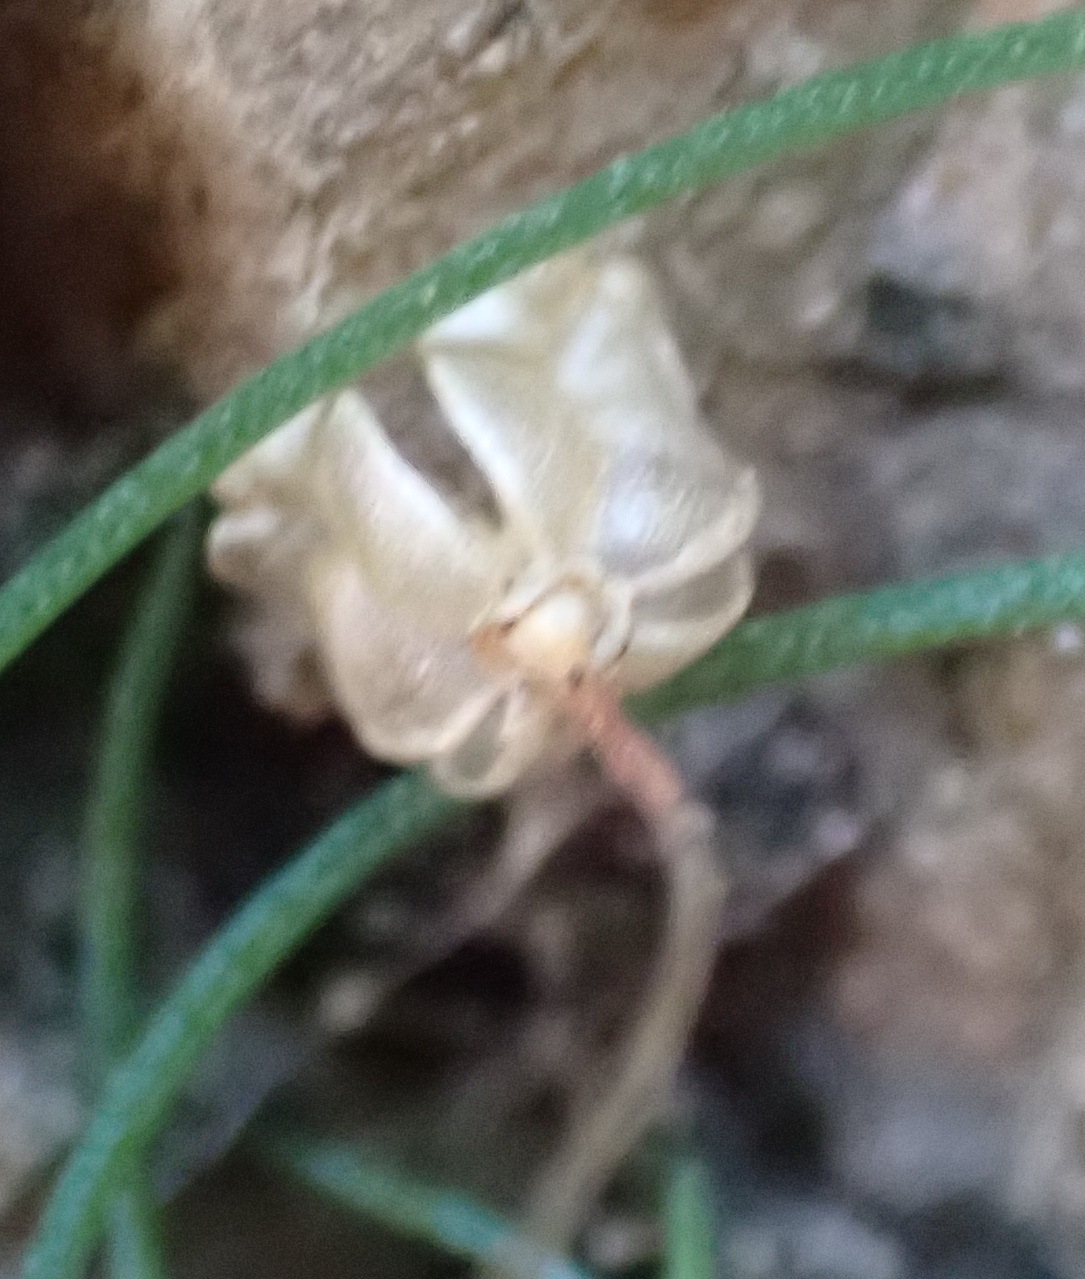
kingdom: Plantae
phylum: Tracheophyta
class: Liliopsida
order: Asparagales
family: Asparagaceae
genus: Drimia
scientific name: Drimia uniflora
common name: Fairy bell
